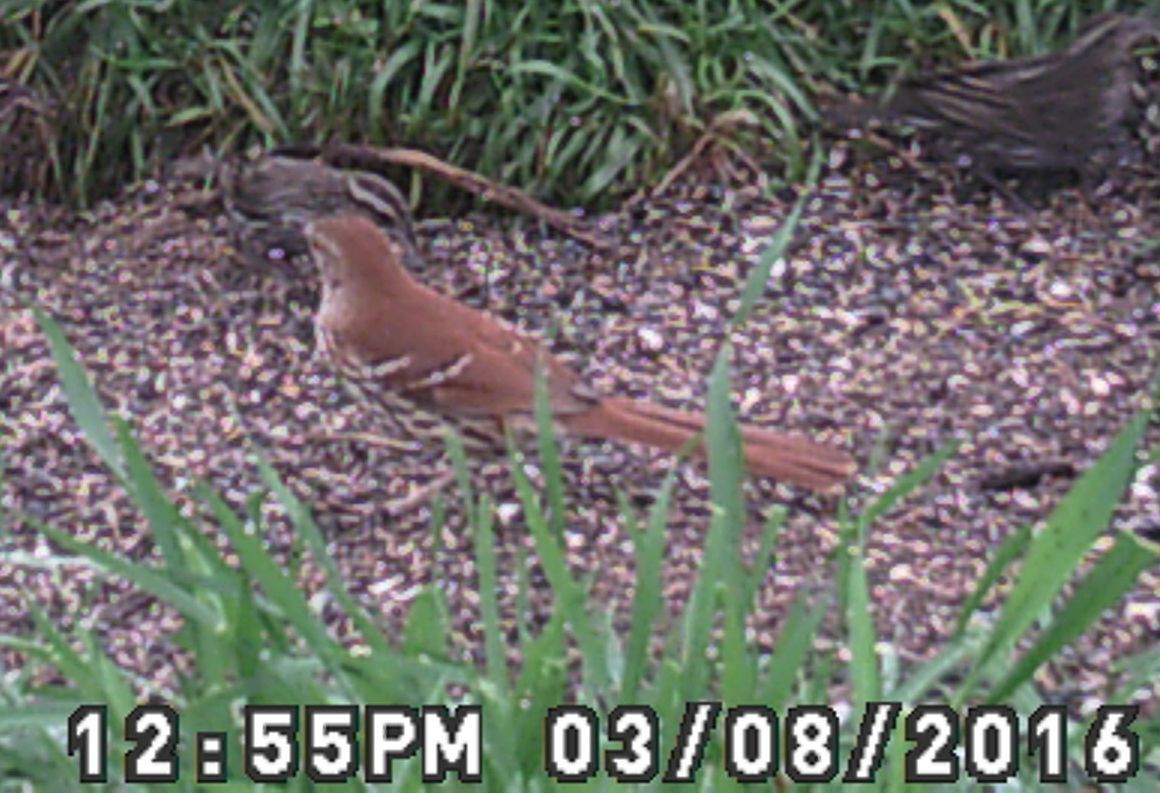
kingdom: Animalia
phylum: Chordata
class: Aves
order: Passeriformes
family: Mimidae
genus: Toxostoma
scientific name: Toxostoma rufum
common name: Brown thrasher
